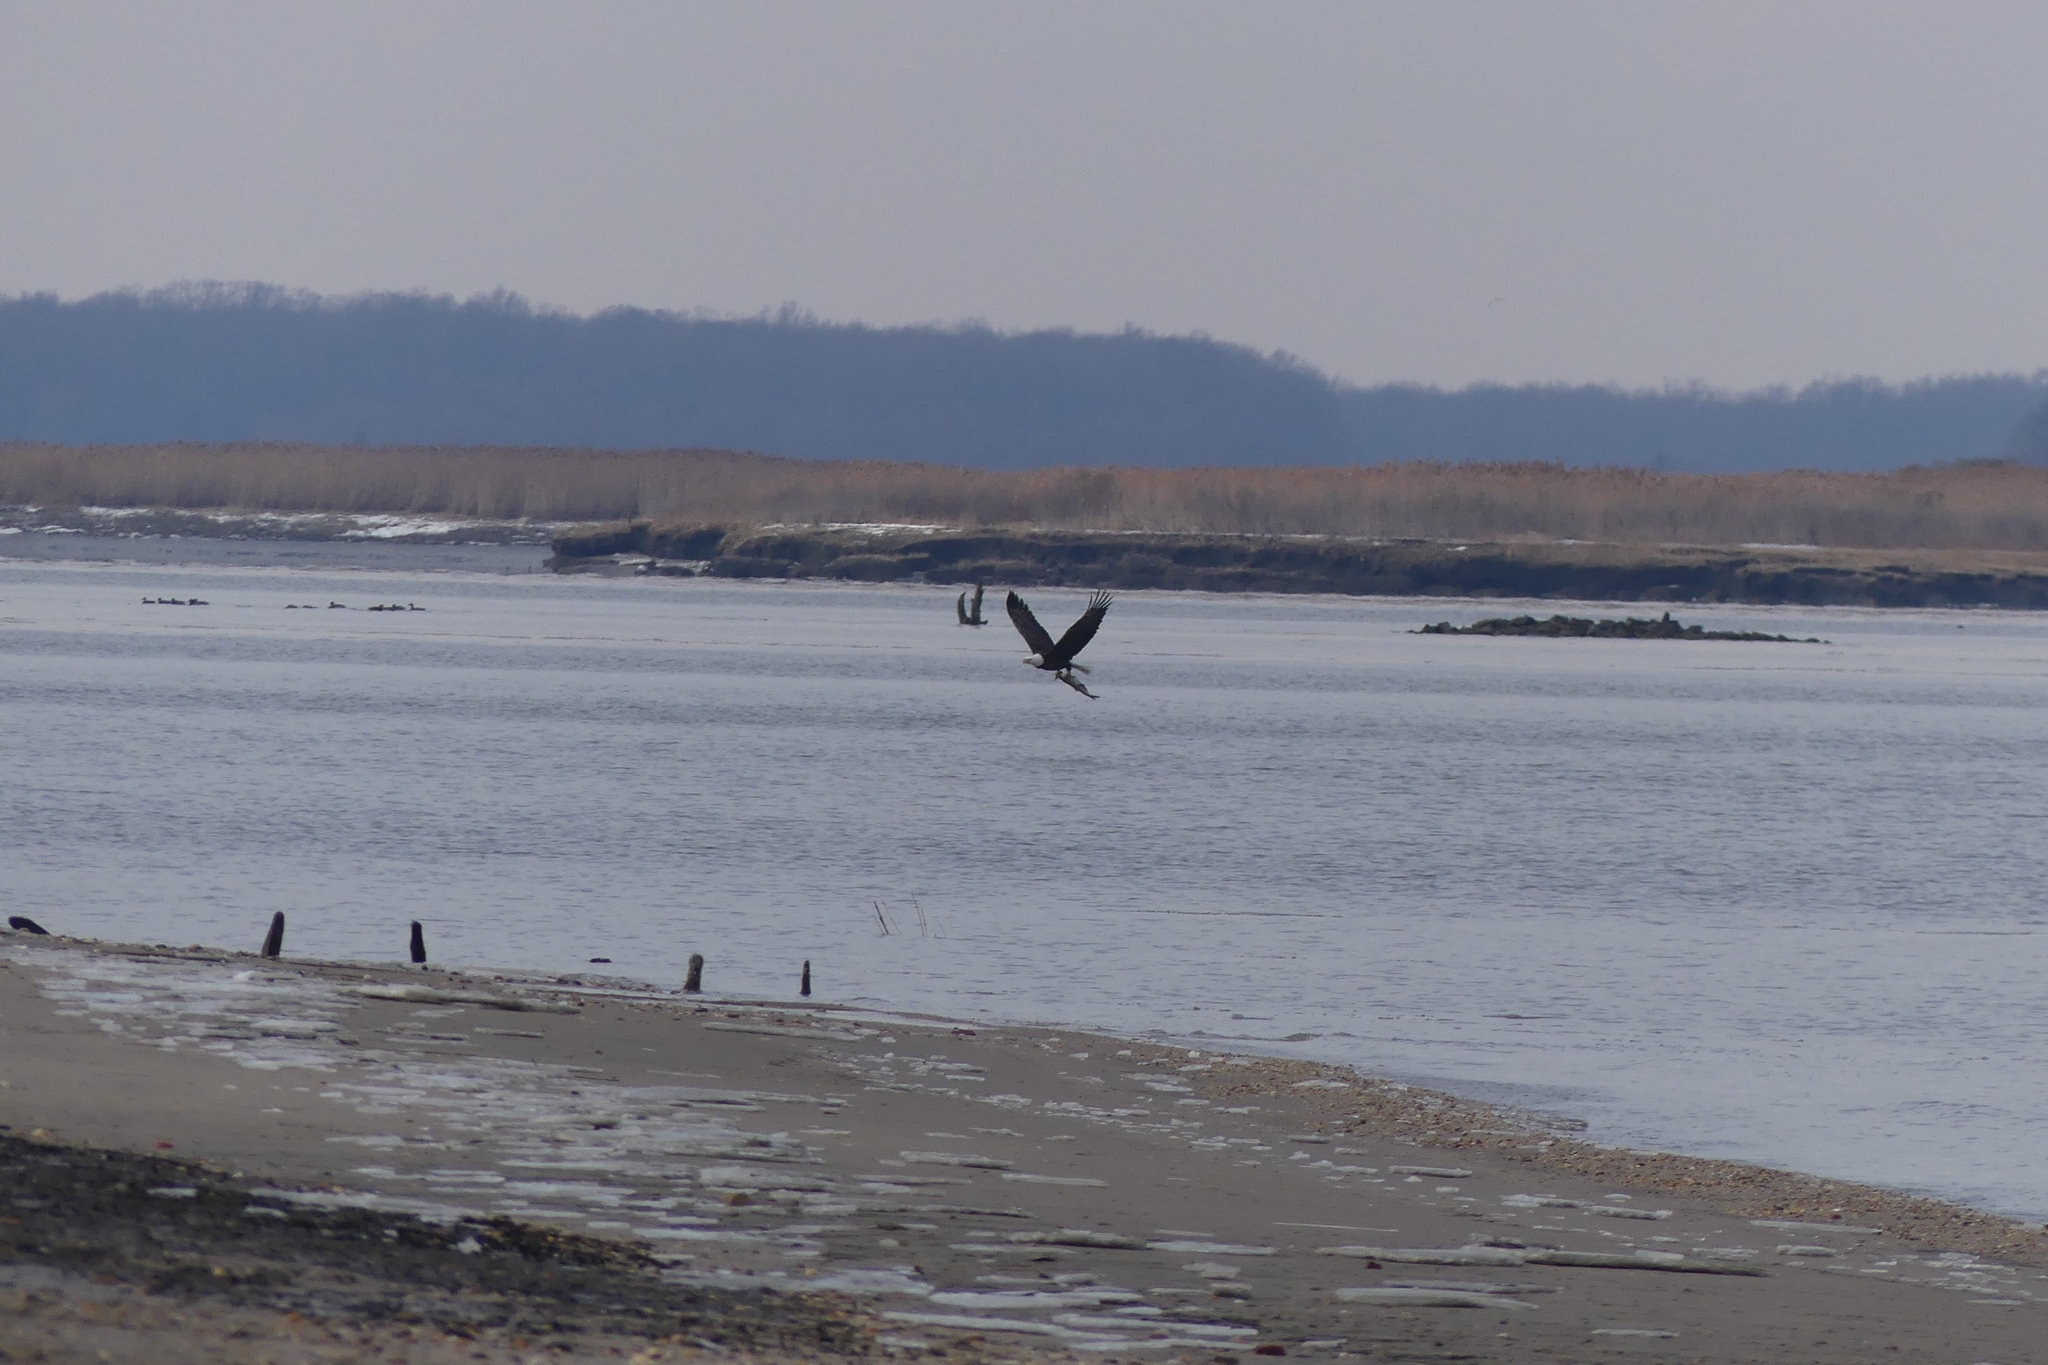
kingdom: Animalia
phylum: Chordata
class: Aves
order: Accipitriformes
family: Accipitridae
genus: Haliaeetus
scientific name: Haliaeetus leucocephalus
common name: Bald eagle
